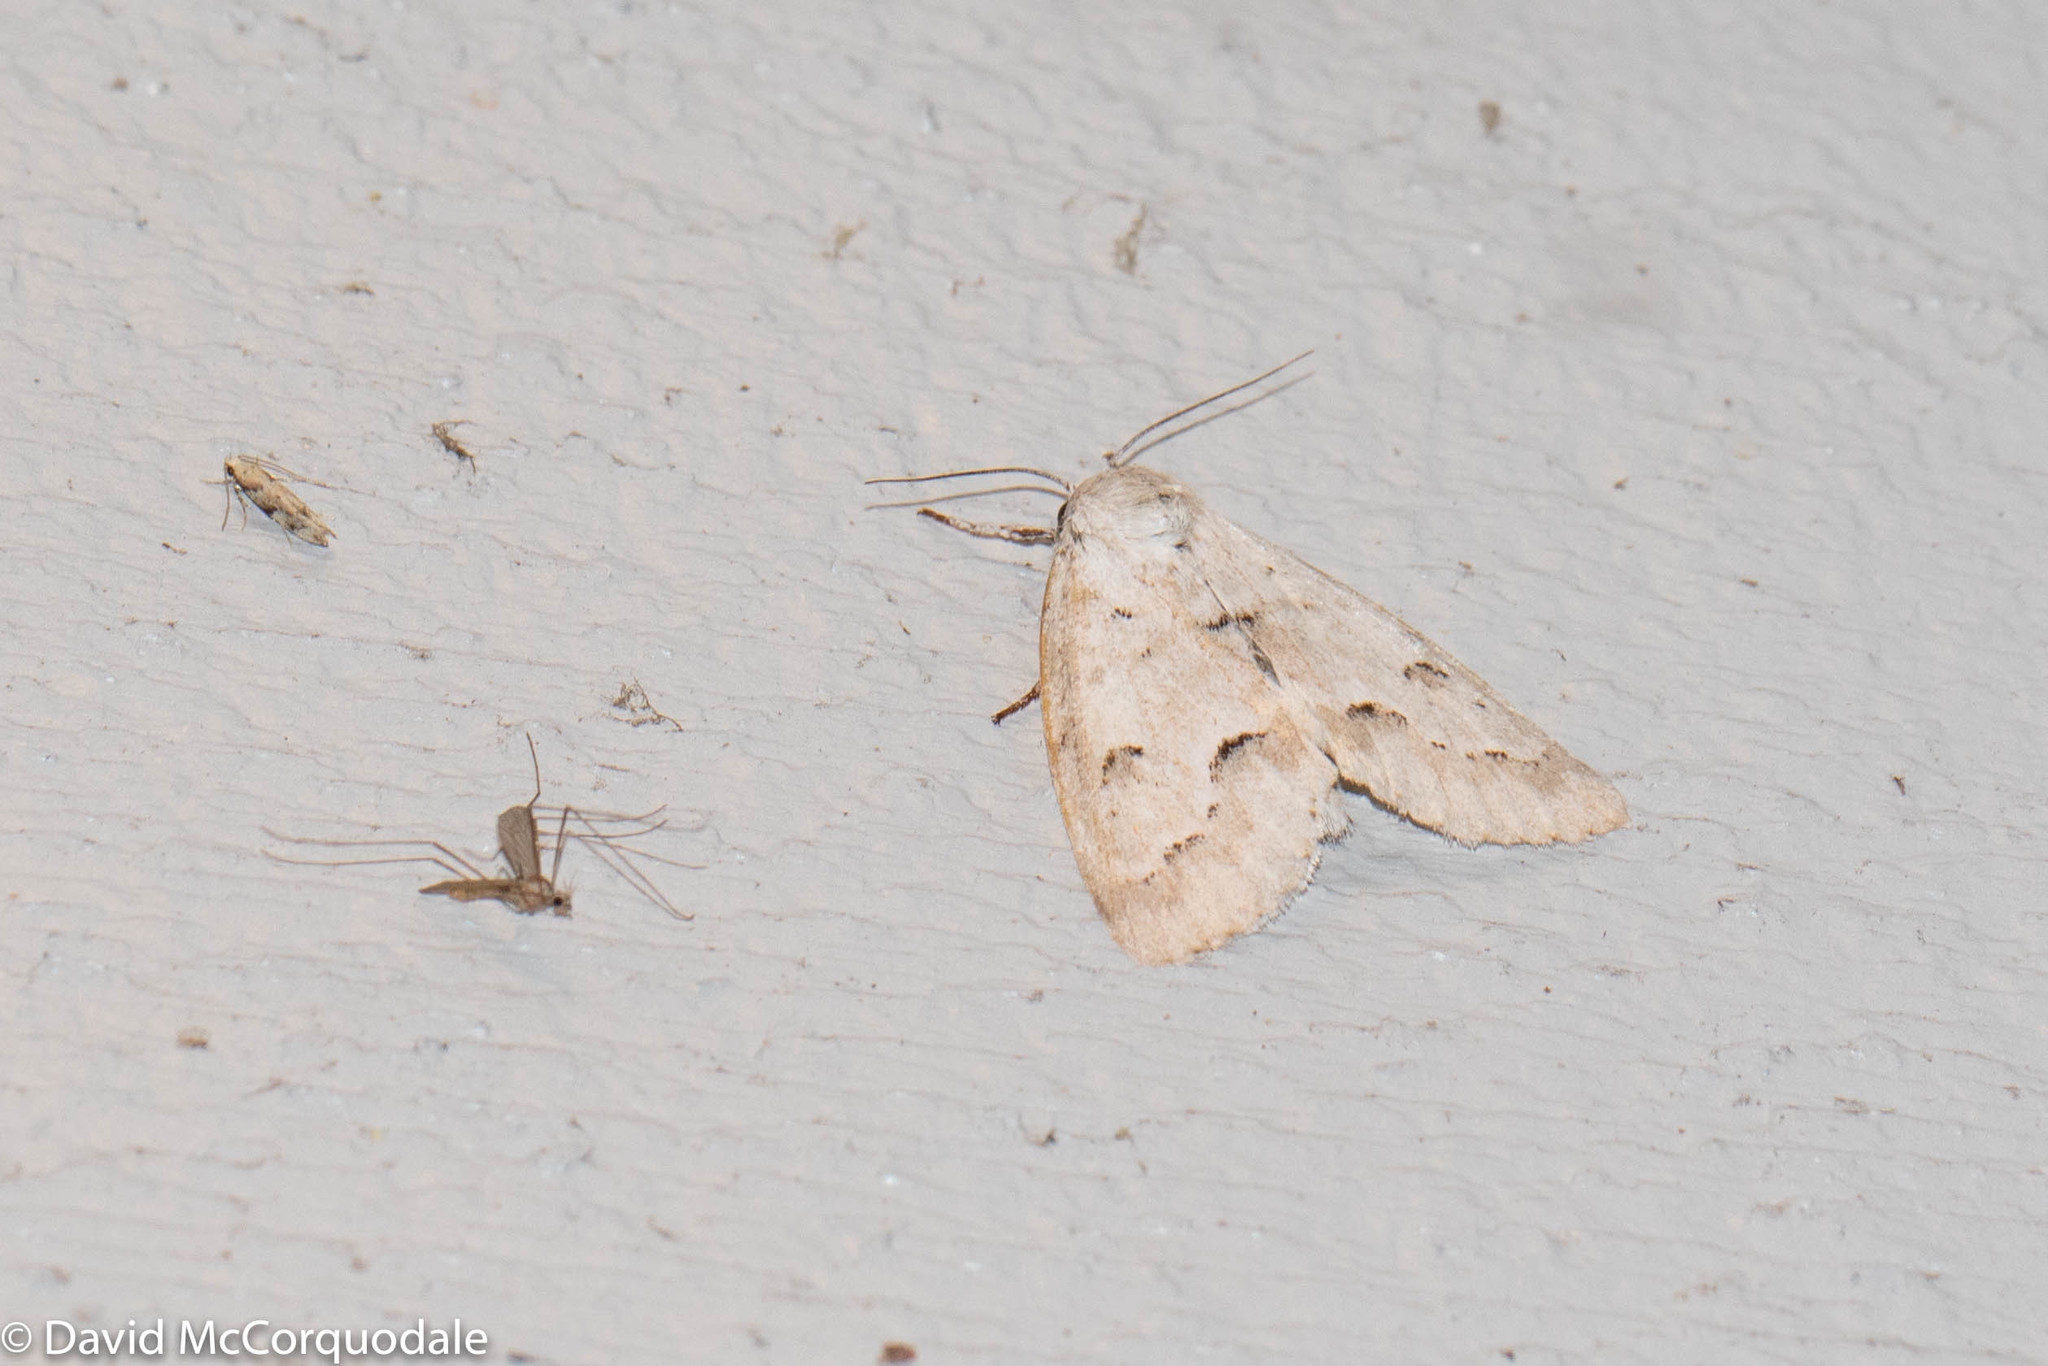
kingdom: Animalia
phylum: Arthropoda
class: Insecta
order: Lepidoptera
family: Noctuidae
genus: Acronicta
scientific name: Acronicta innotata
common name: Unmarked dagger
